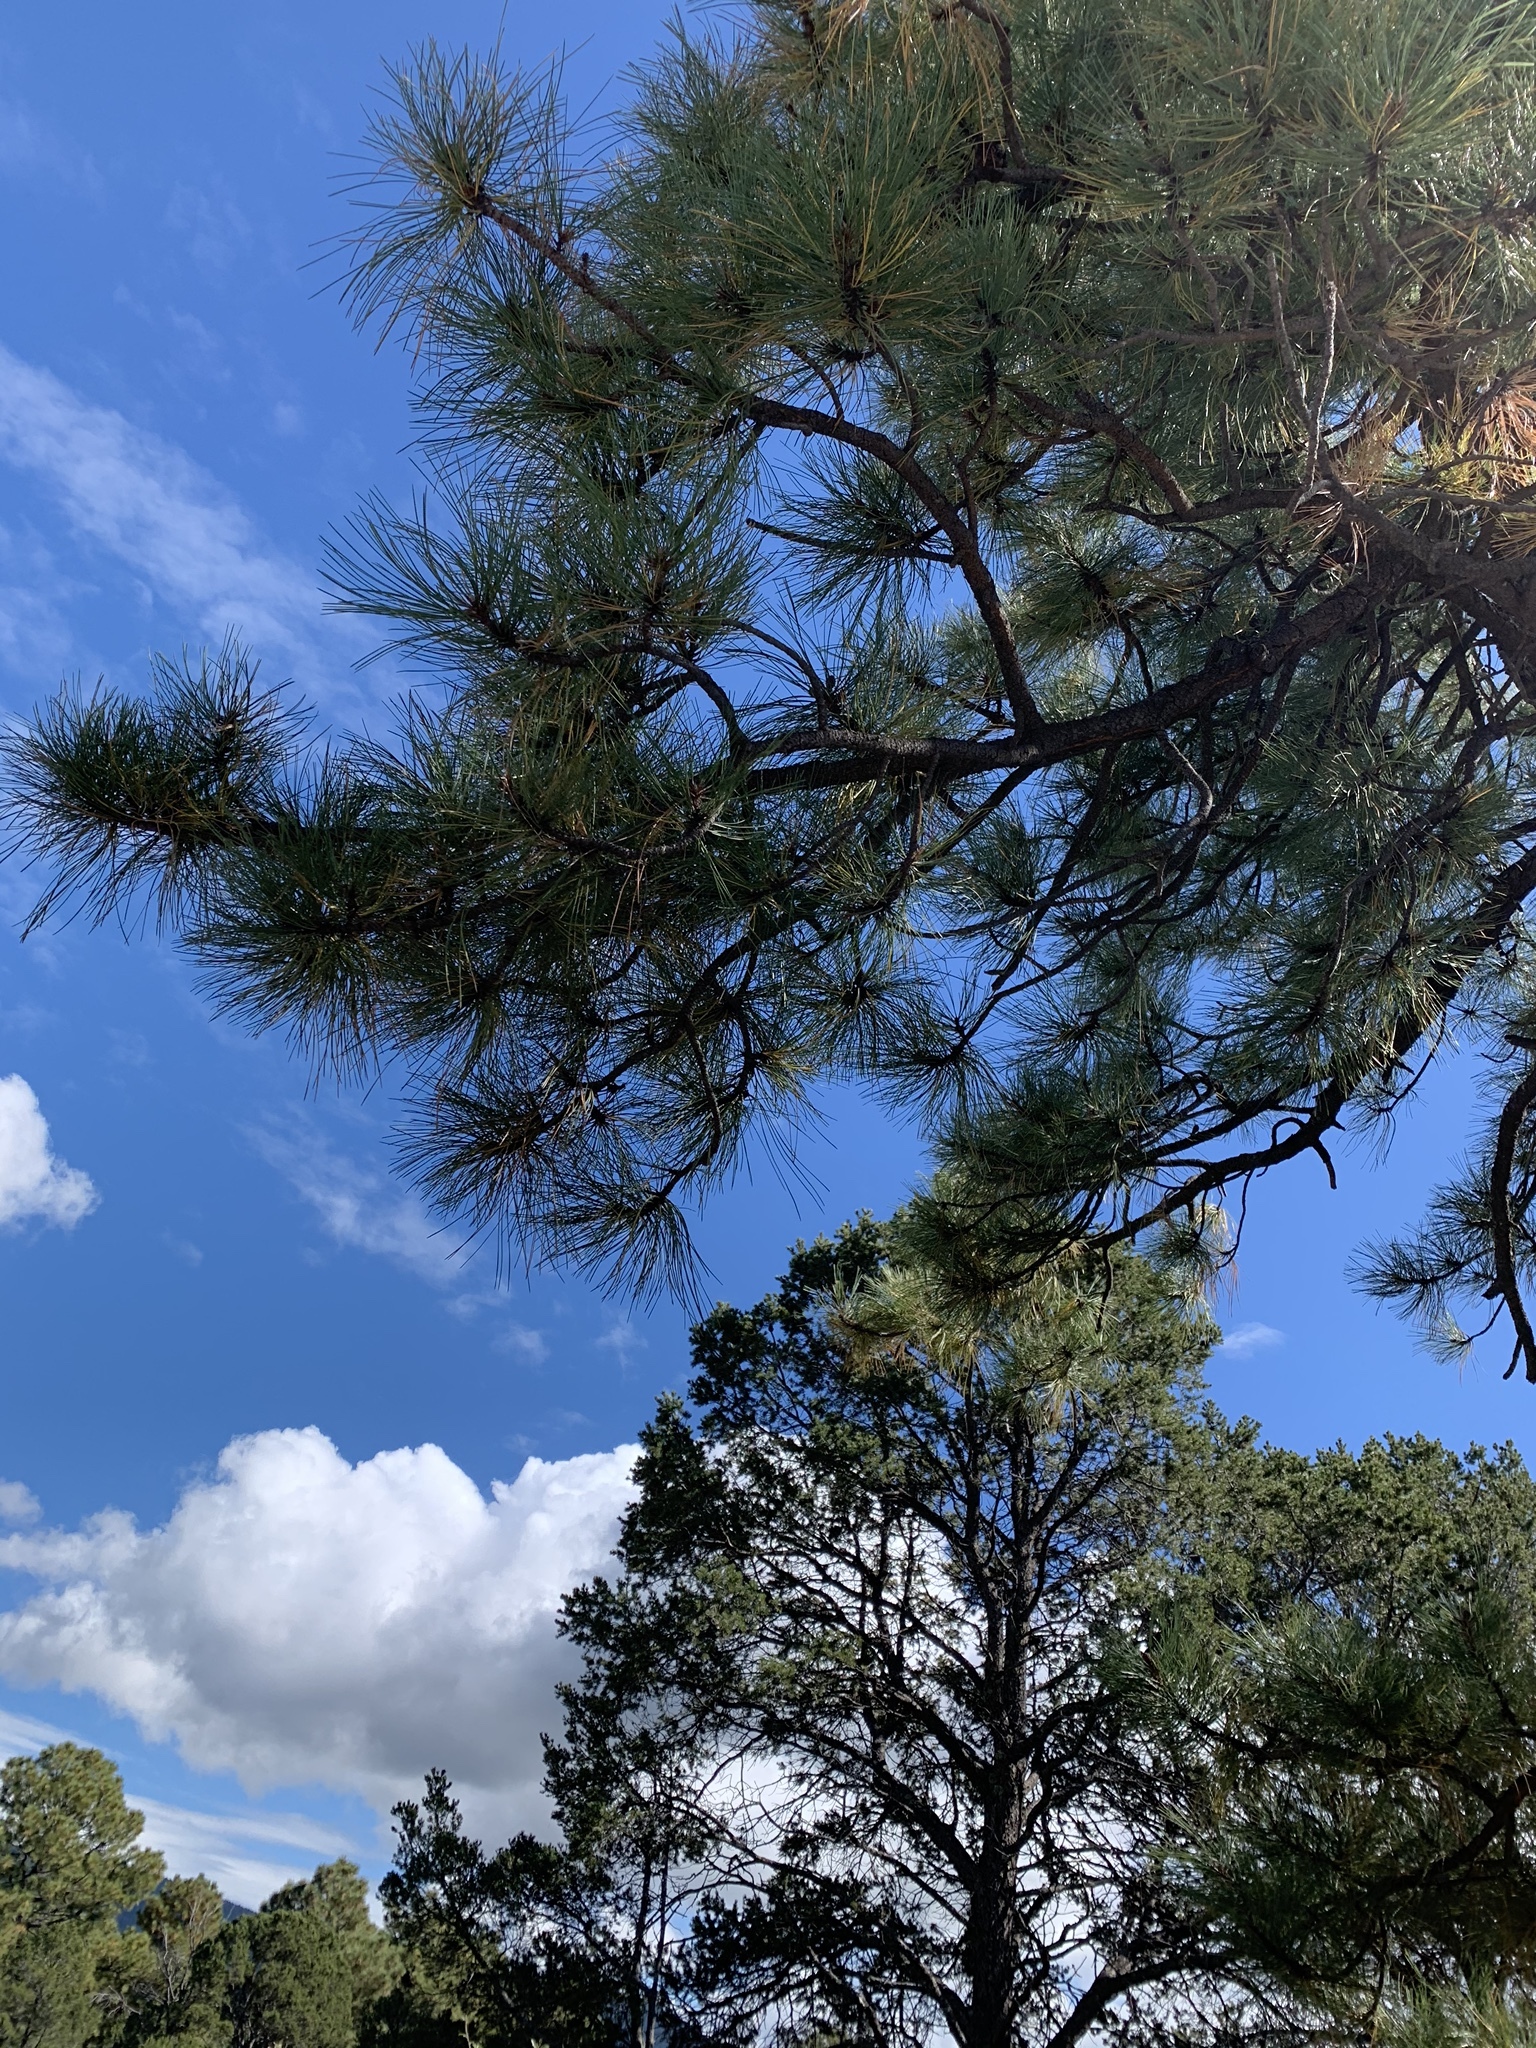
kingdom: Plantae
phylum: Tracheophyta
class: Pinopsida
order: Pinales
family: Pinaceae
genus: Pinus
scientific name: Pinus ponderosa
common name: Western yellow-pine
